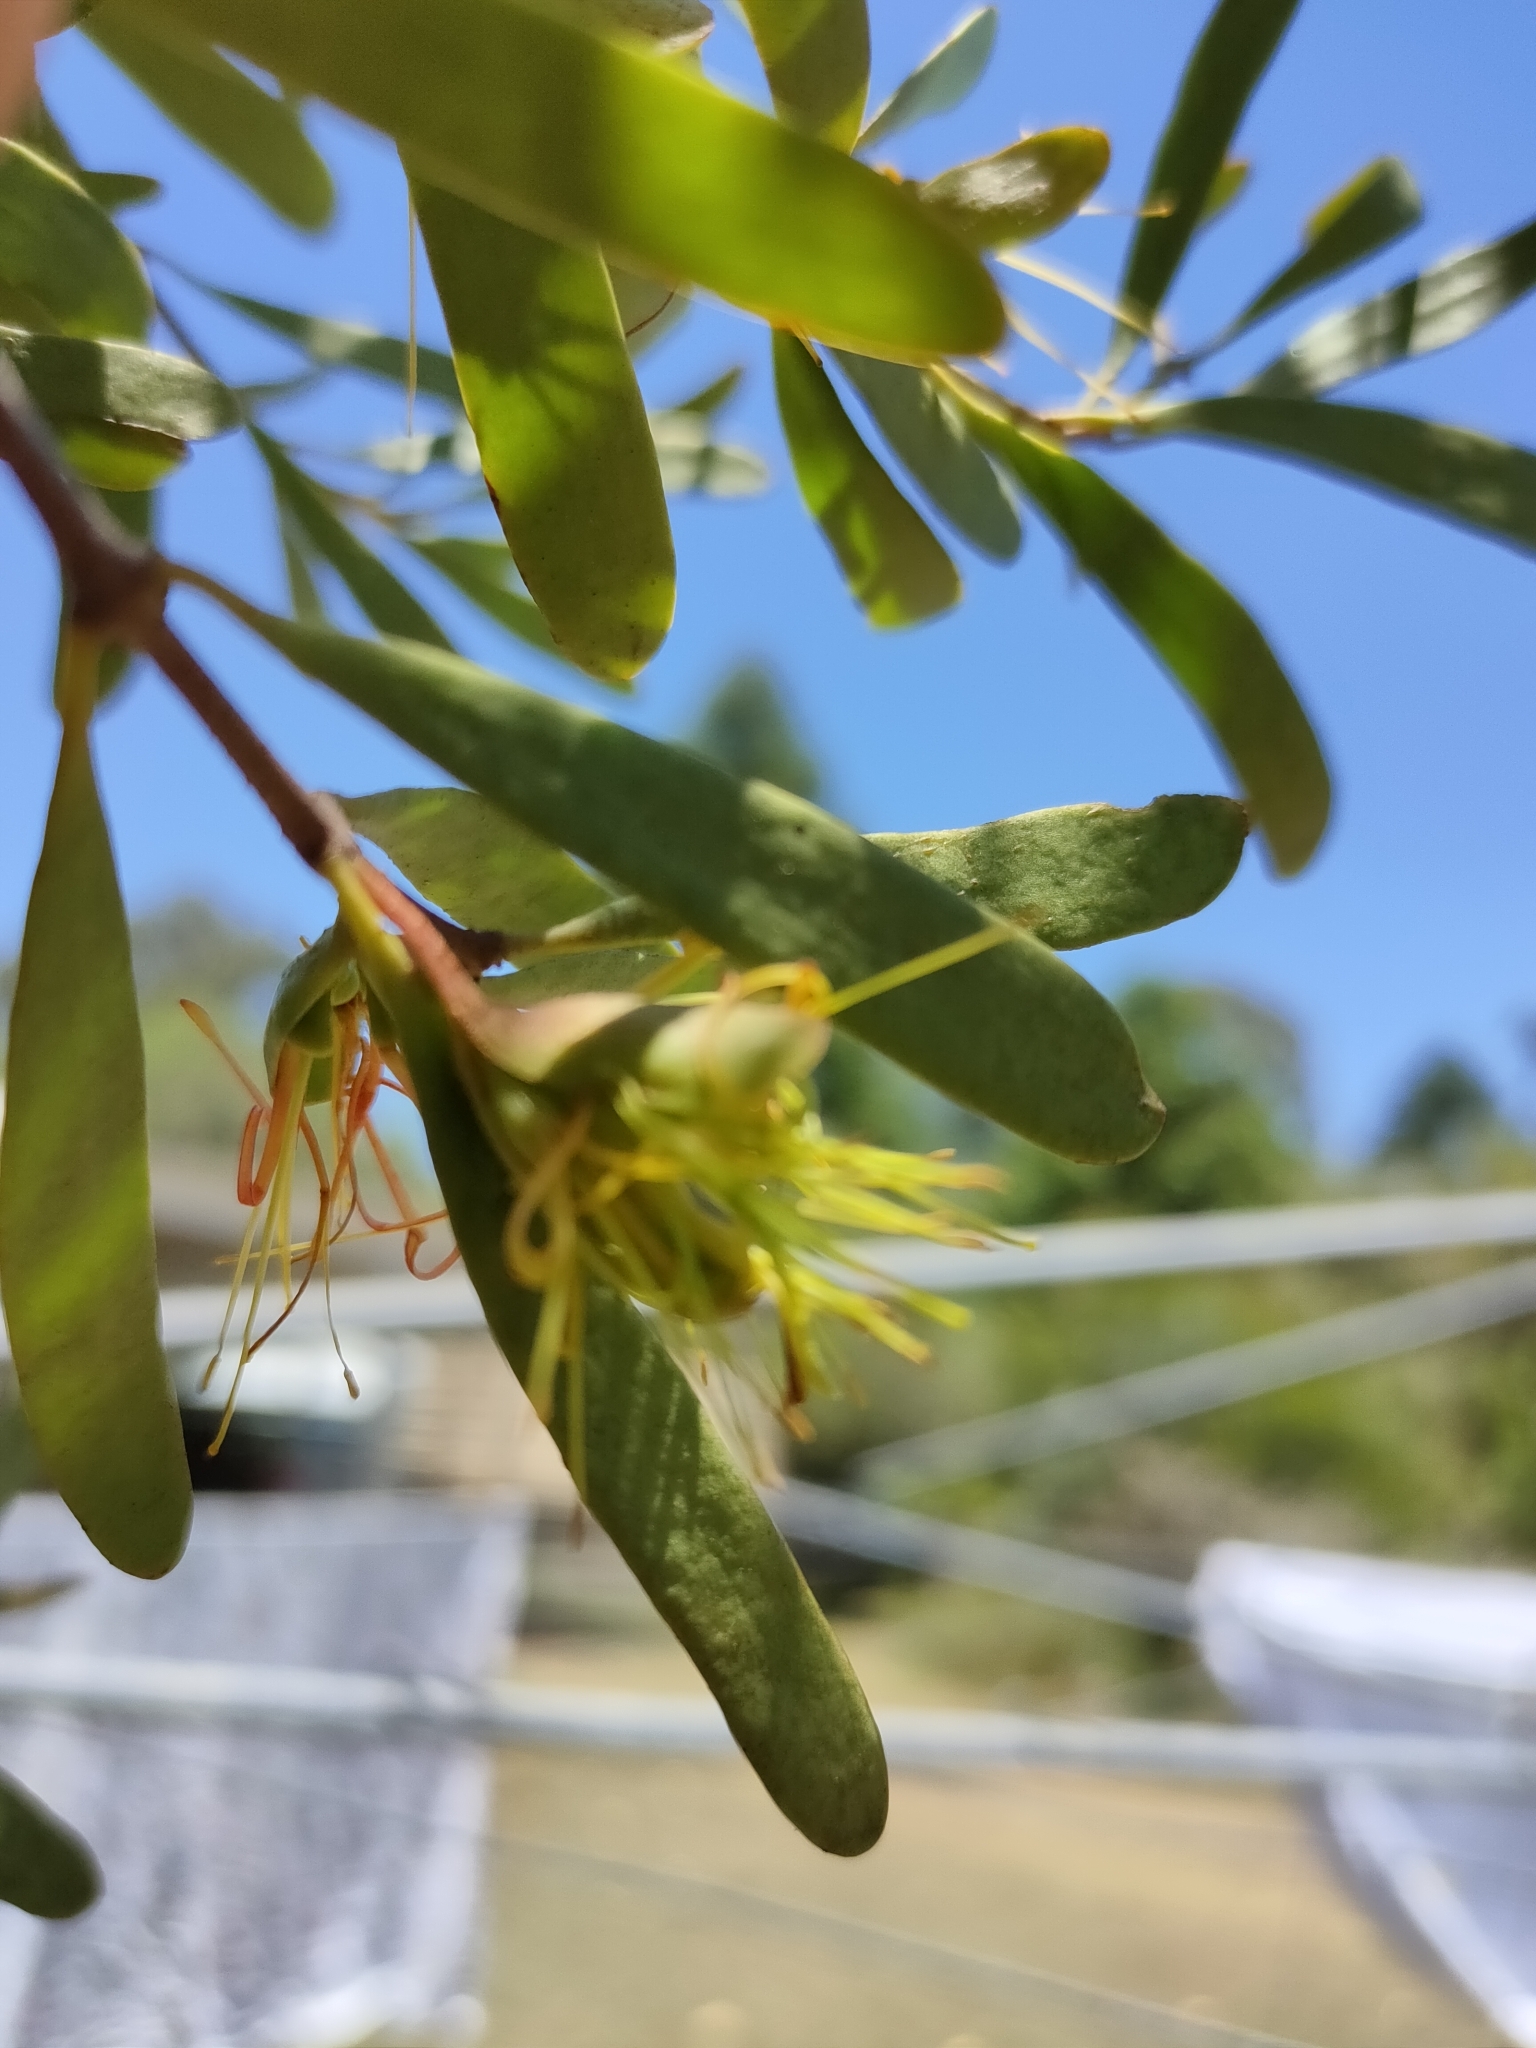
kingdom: Plantae
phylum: Tracheophyta
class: Magnoliopsida
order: Santalales
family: Loranthaceae
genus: Diplatia
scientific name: Diplatia furcata
